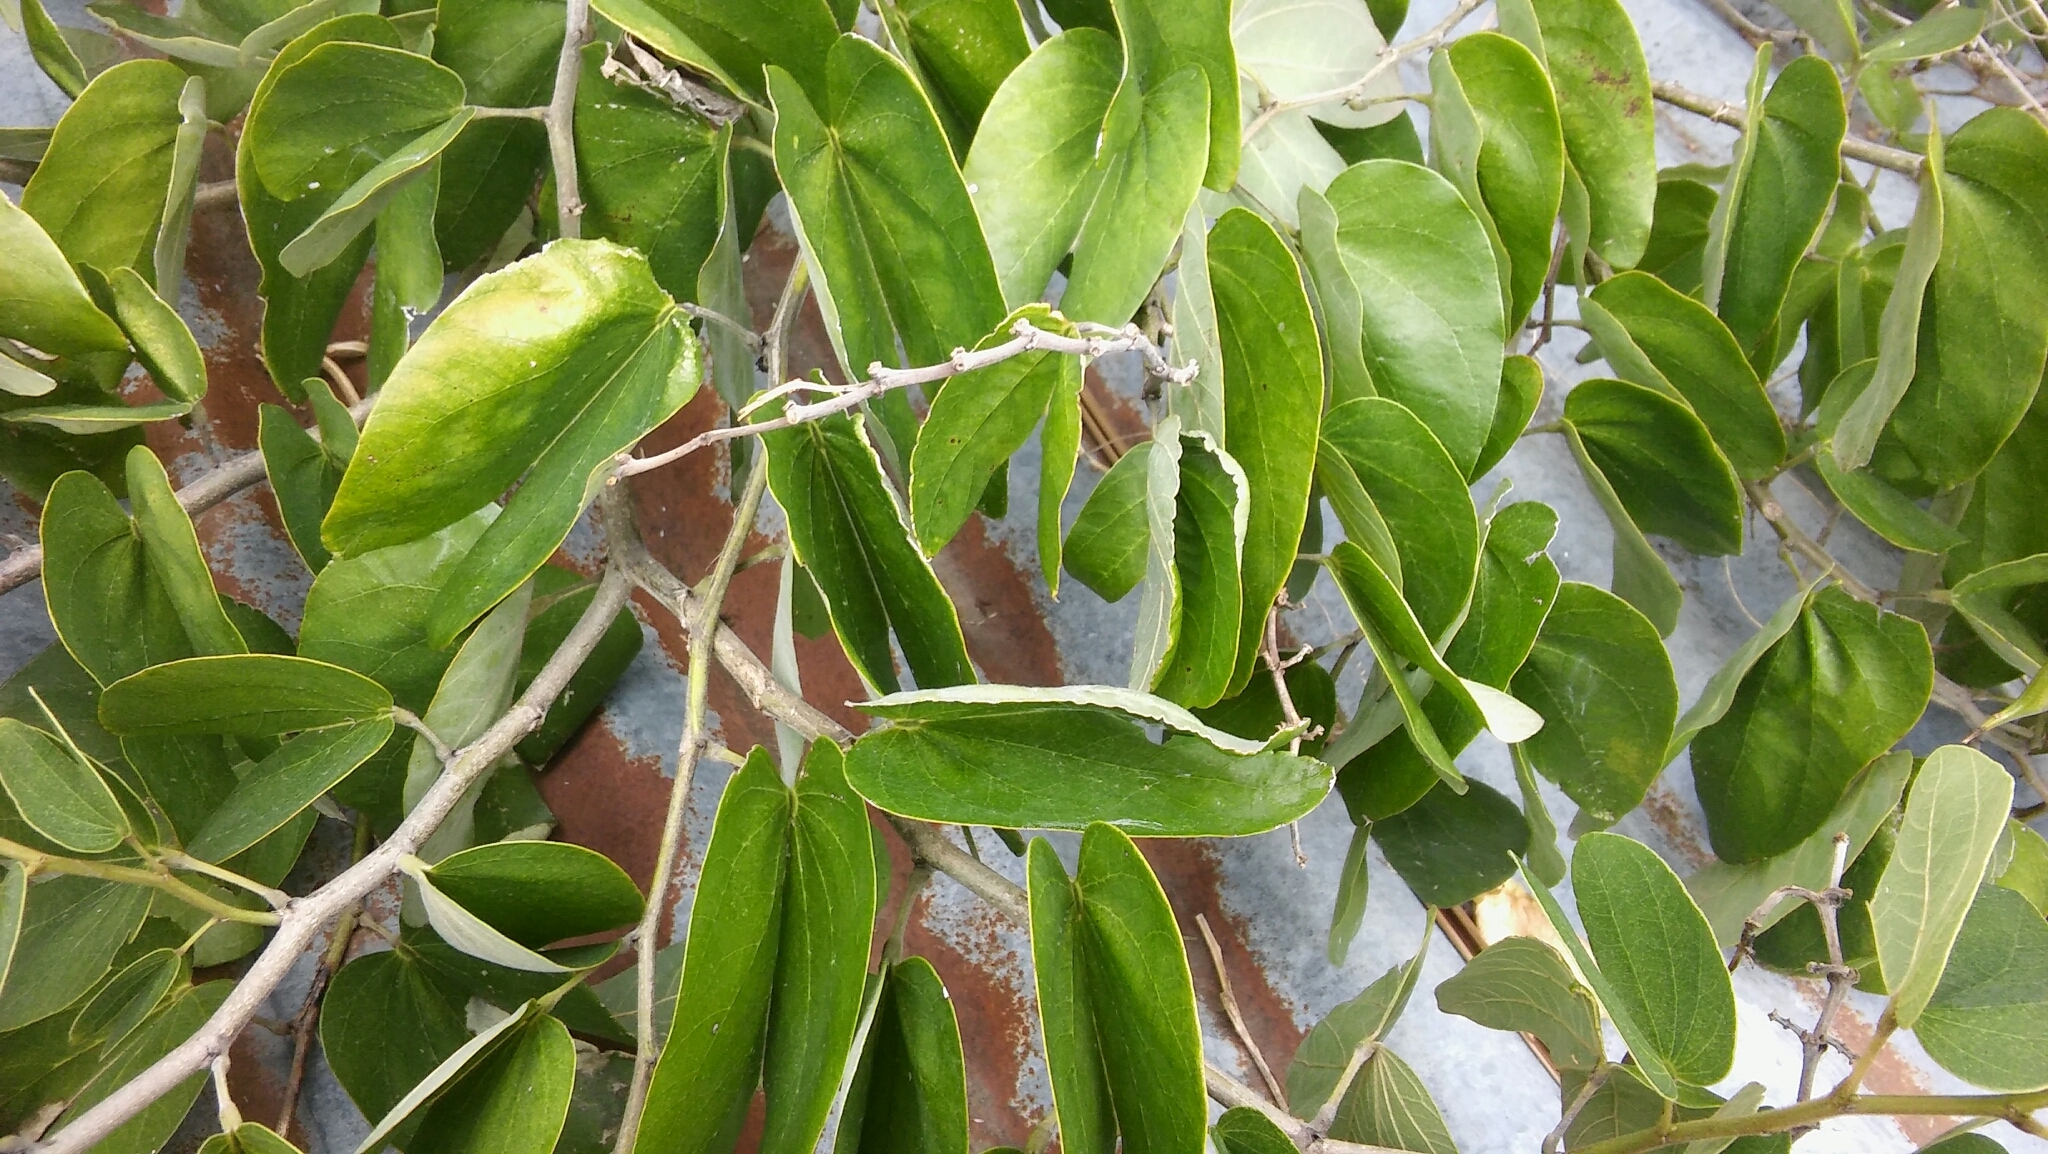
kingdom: Plantae
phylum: Tracheophyta
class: Magnoliopsida
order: Fabales
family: Fabaceae
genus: Bauhinia
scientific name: Bauhinia forficata
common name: Orchid tree
